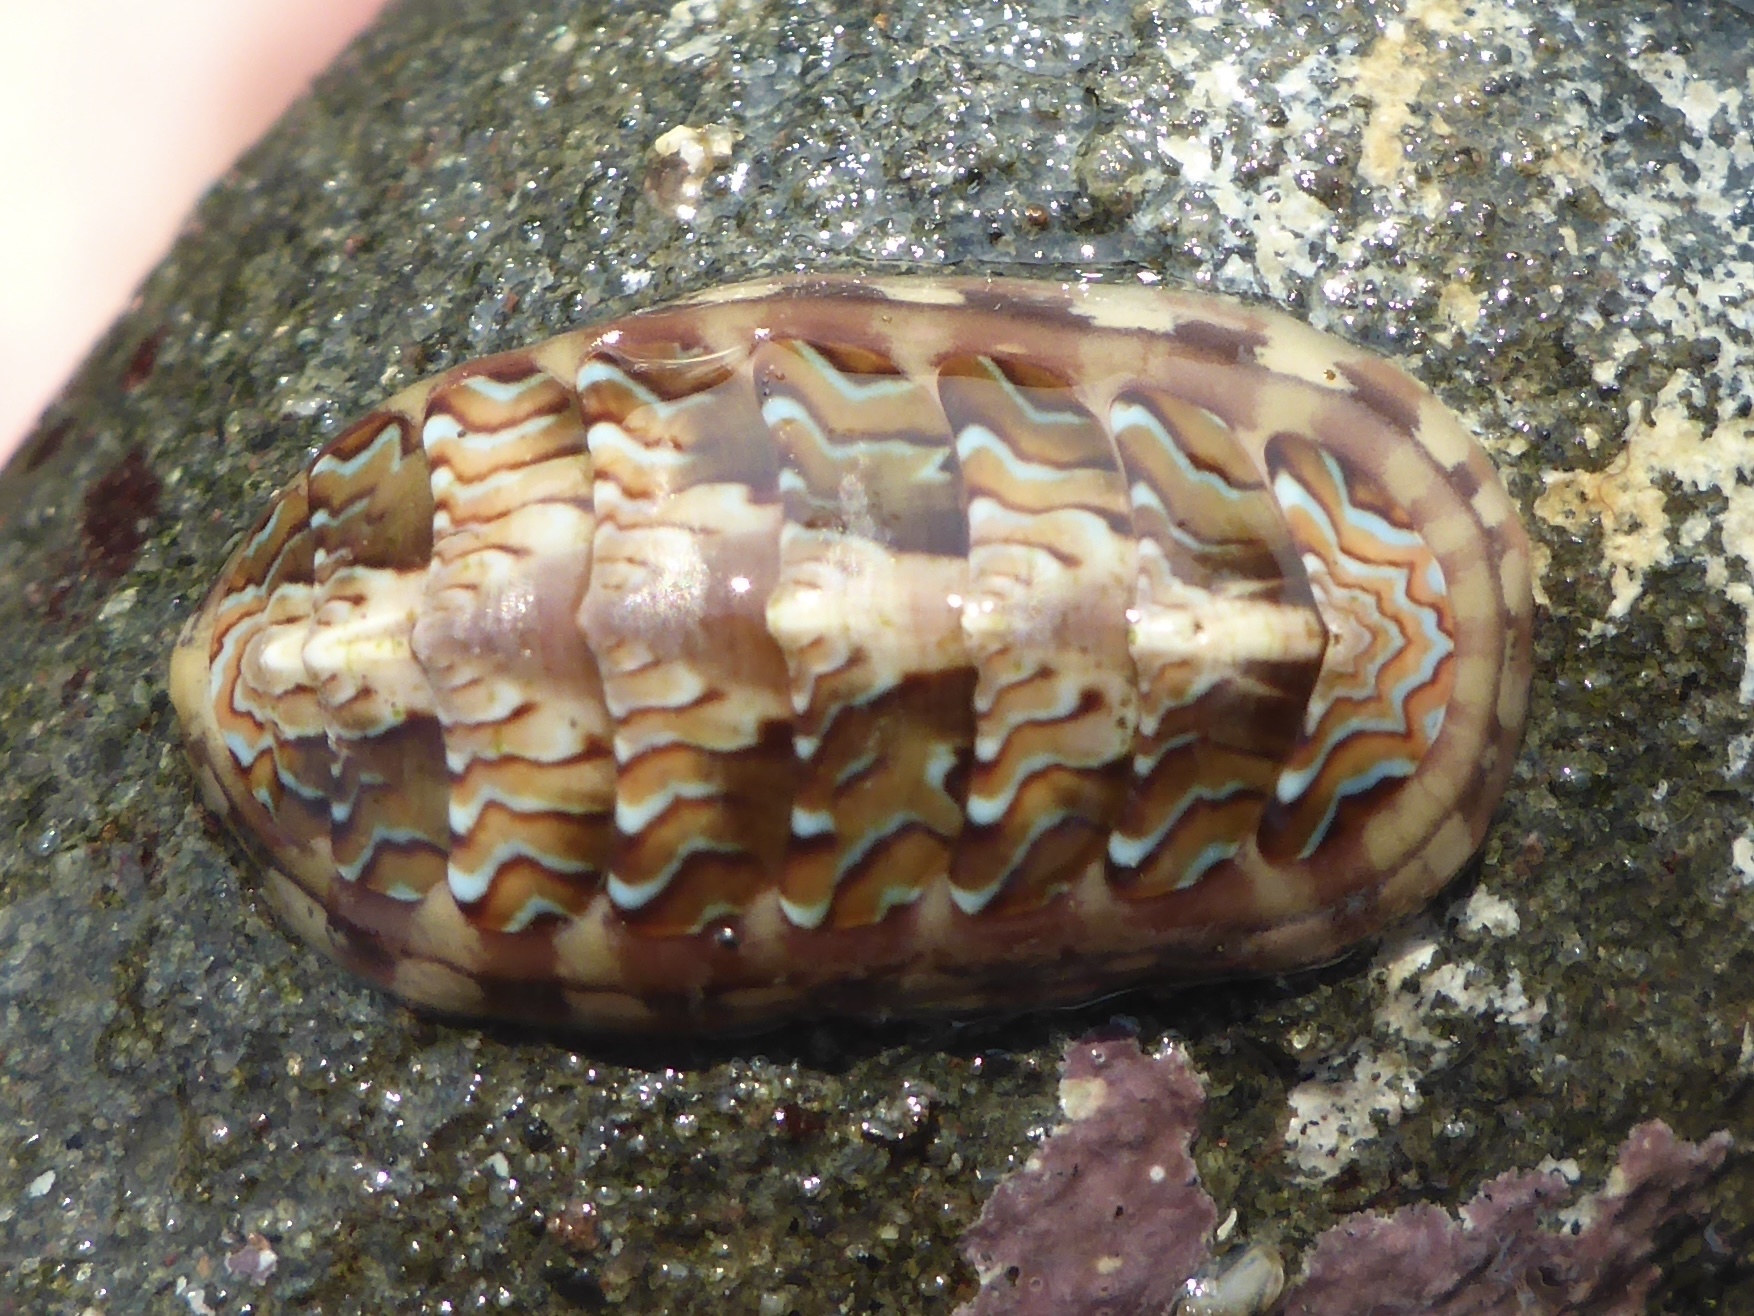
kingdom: Animalia
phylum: Mollusca
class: Polyplacophora
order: Chitonida
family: Tonicellidae
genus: Tonicella
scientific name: Tonicella lokii
